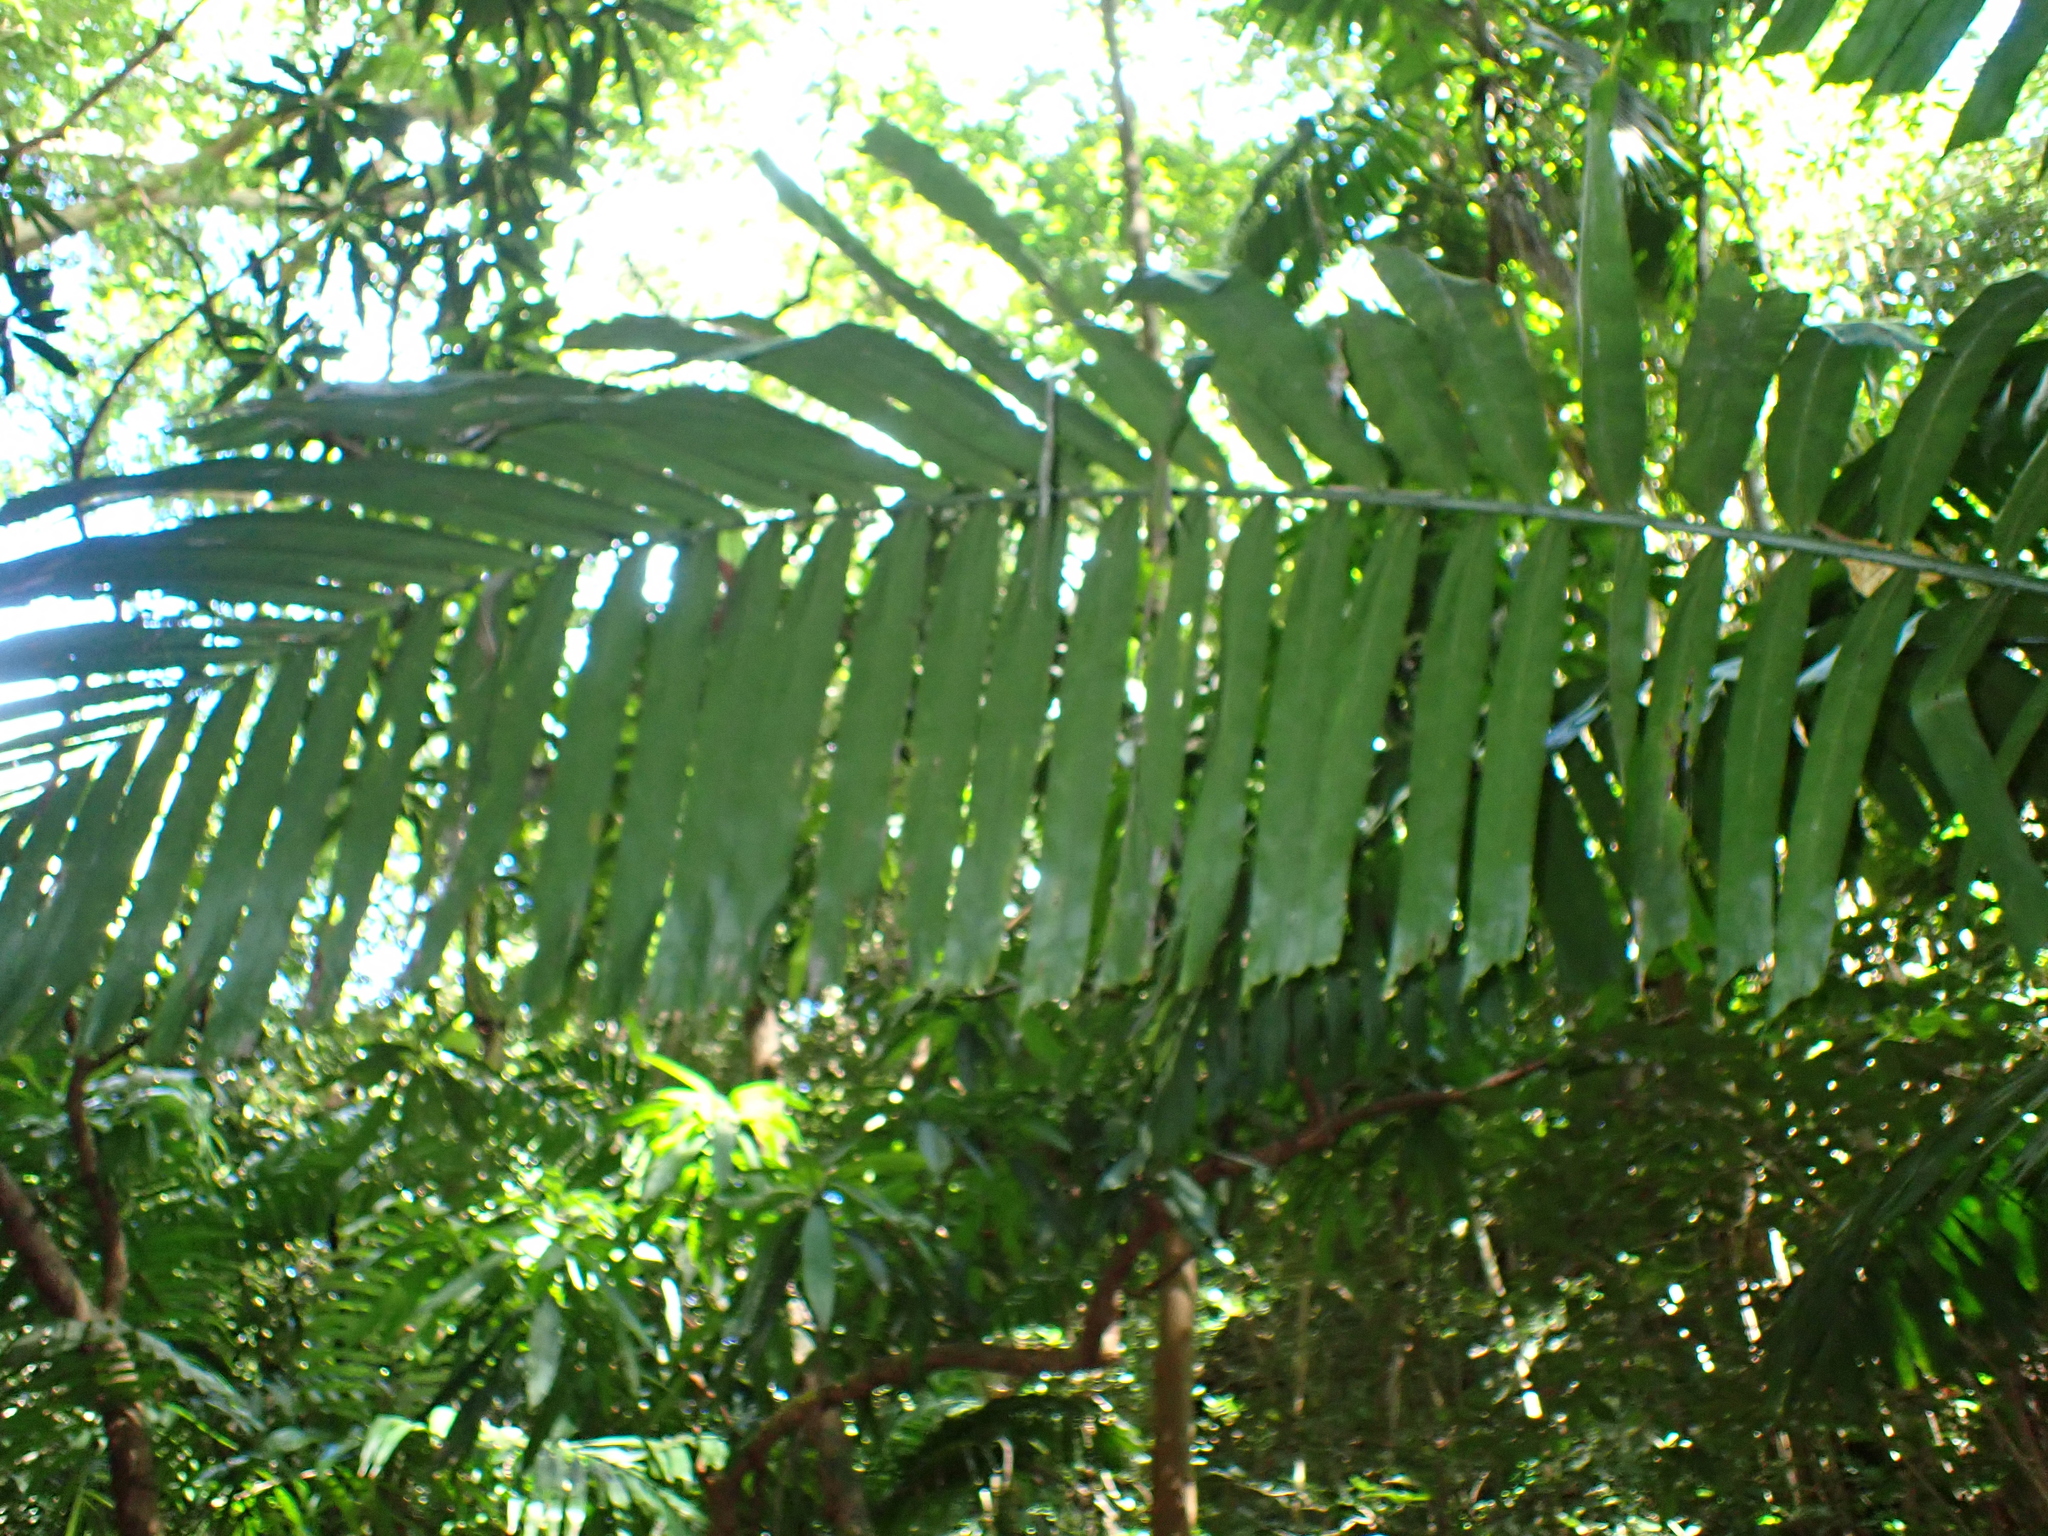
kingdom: Plantae
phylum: Tracheophyta
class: Liliopsida
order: Arecales
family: Arecaceae
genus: Aiphanes
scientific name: Aiphanes minima
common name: Grigri
